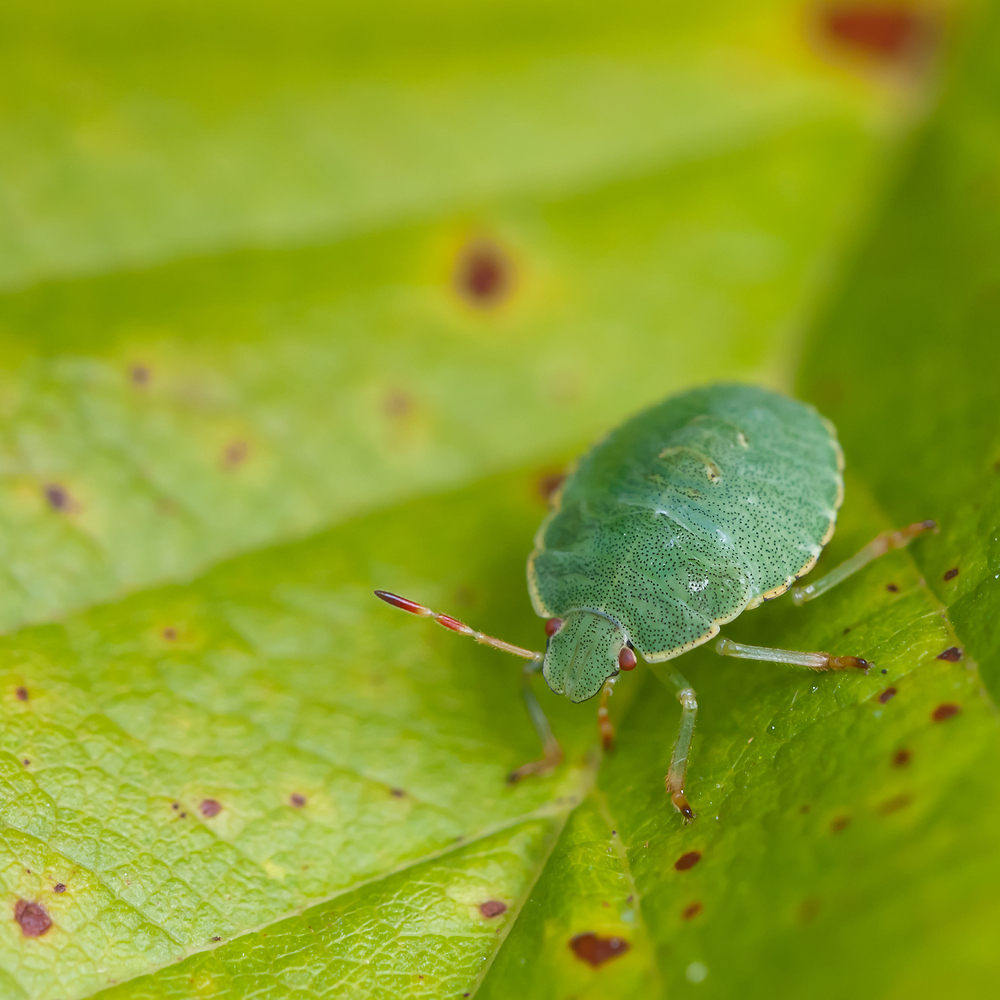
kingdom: Animalia
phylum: Arthropoda
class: Insecta
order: Hemiptera
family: Pentatomidae
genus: Palomena
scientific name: Palomena prasina
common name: Green shieldbug
